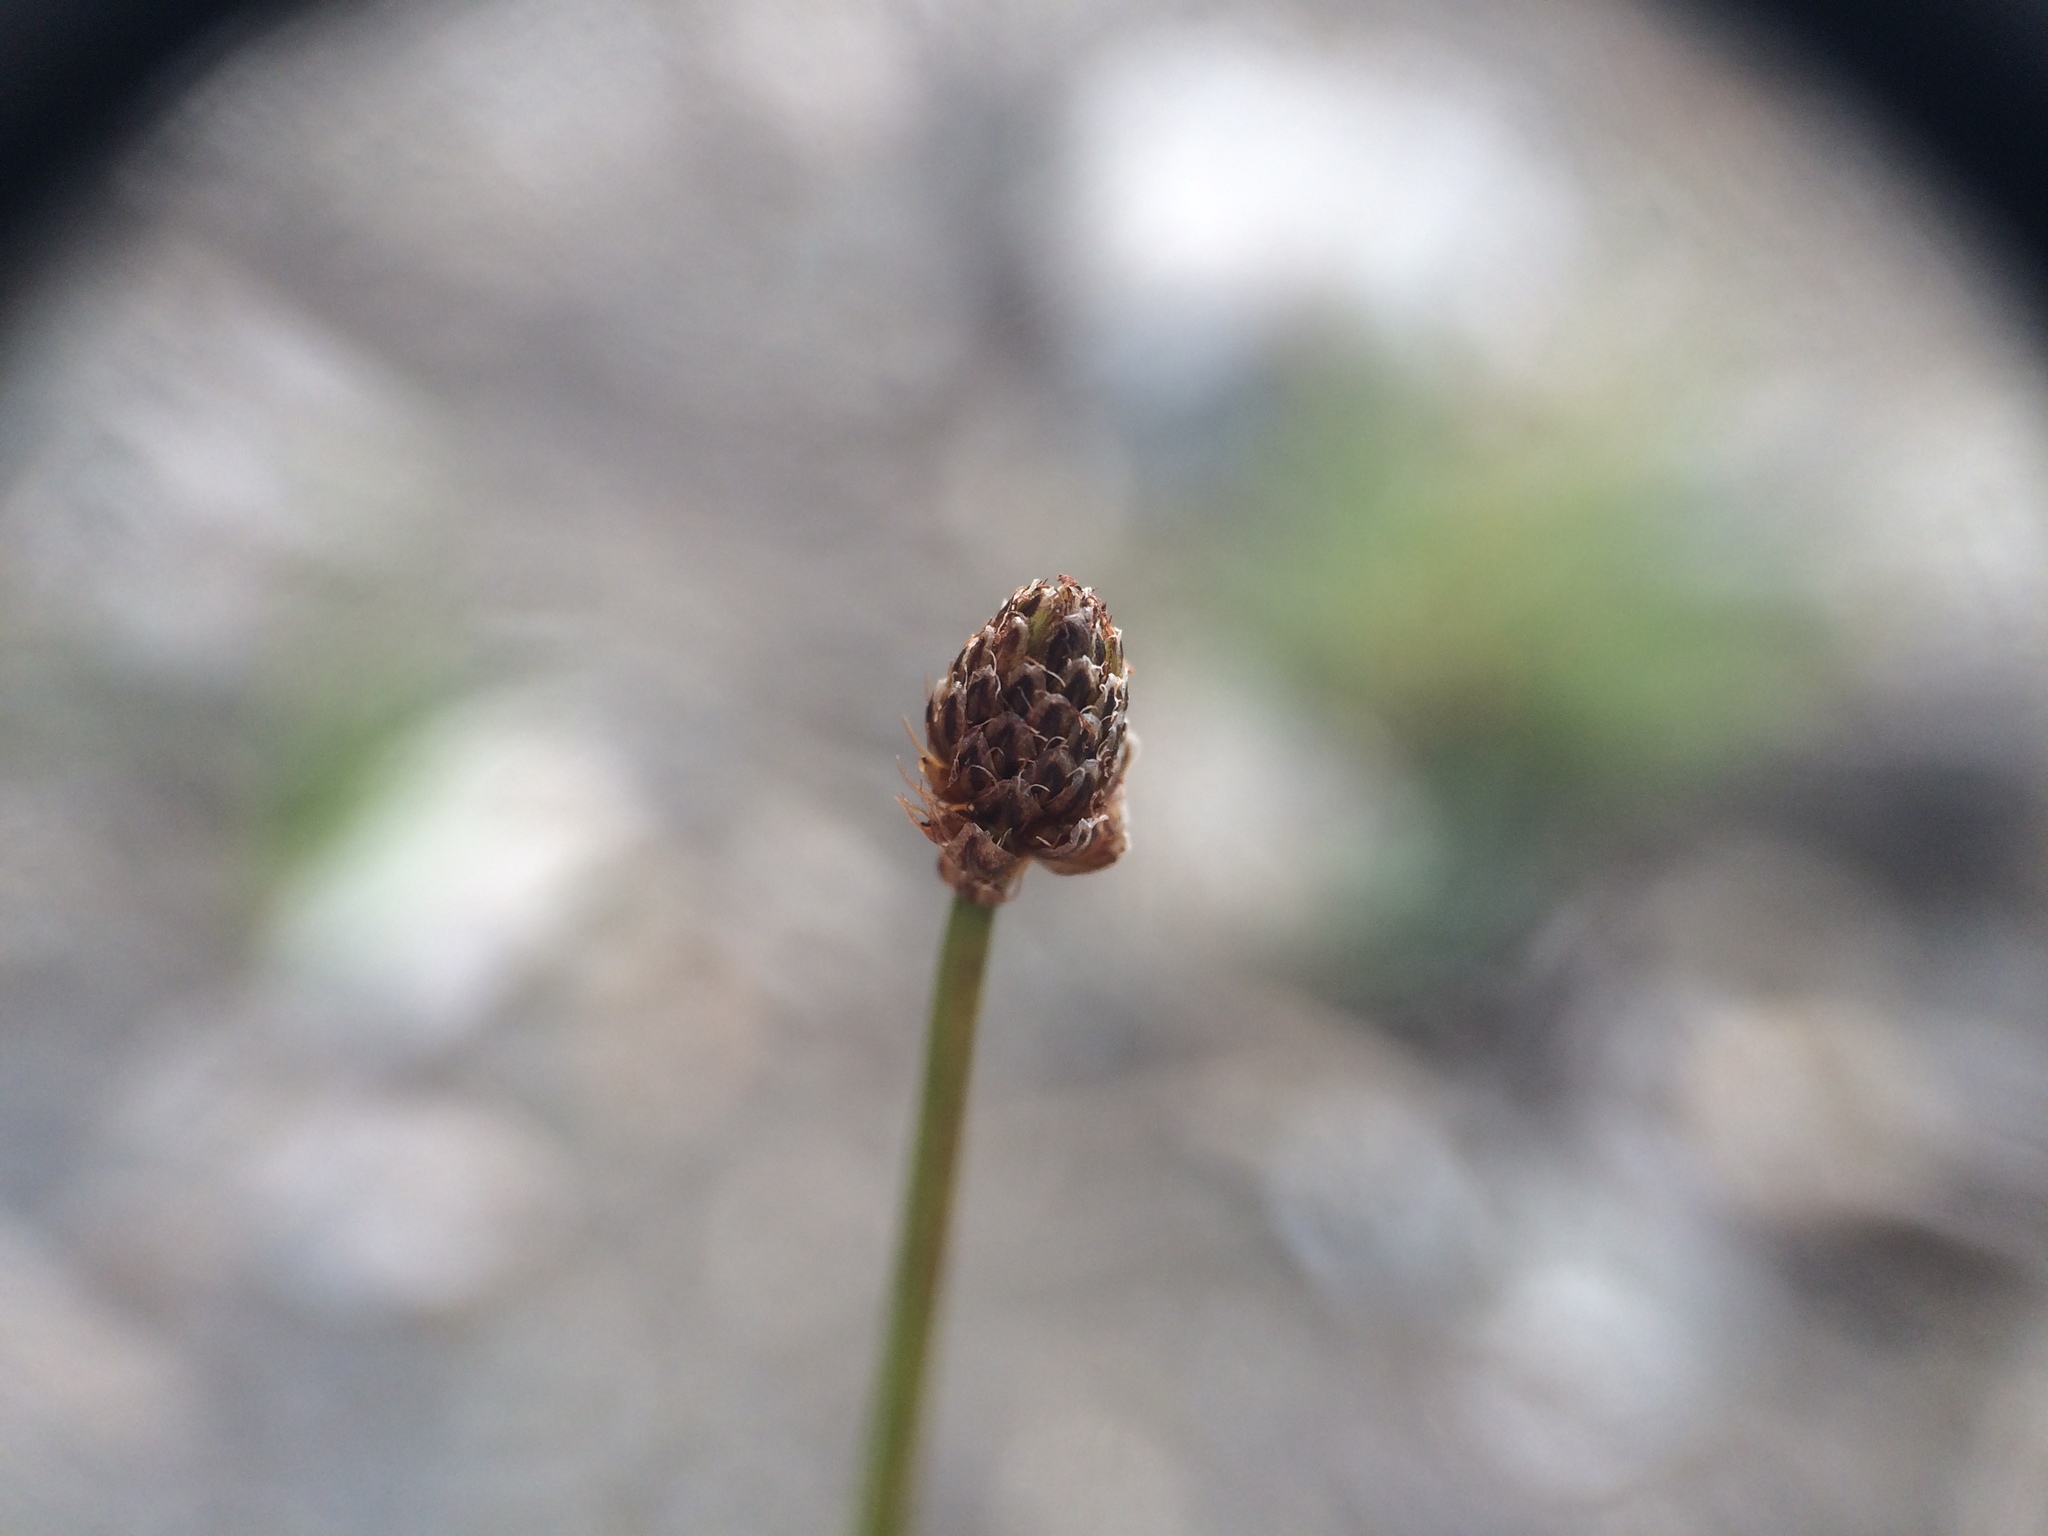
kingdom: Plantae
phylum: Tracheophyta
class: Liliopsida
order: Poales
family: Cyperaceae
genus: Eleocharis
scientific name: Eleocharis obtusa
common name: Blunt spikerush
